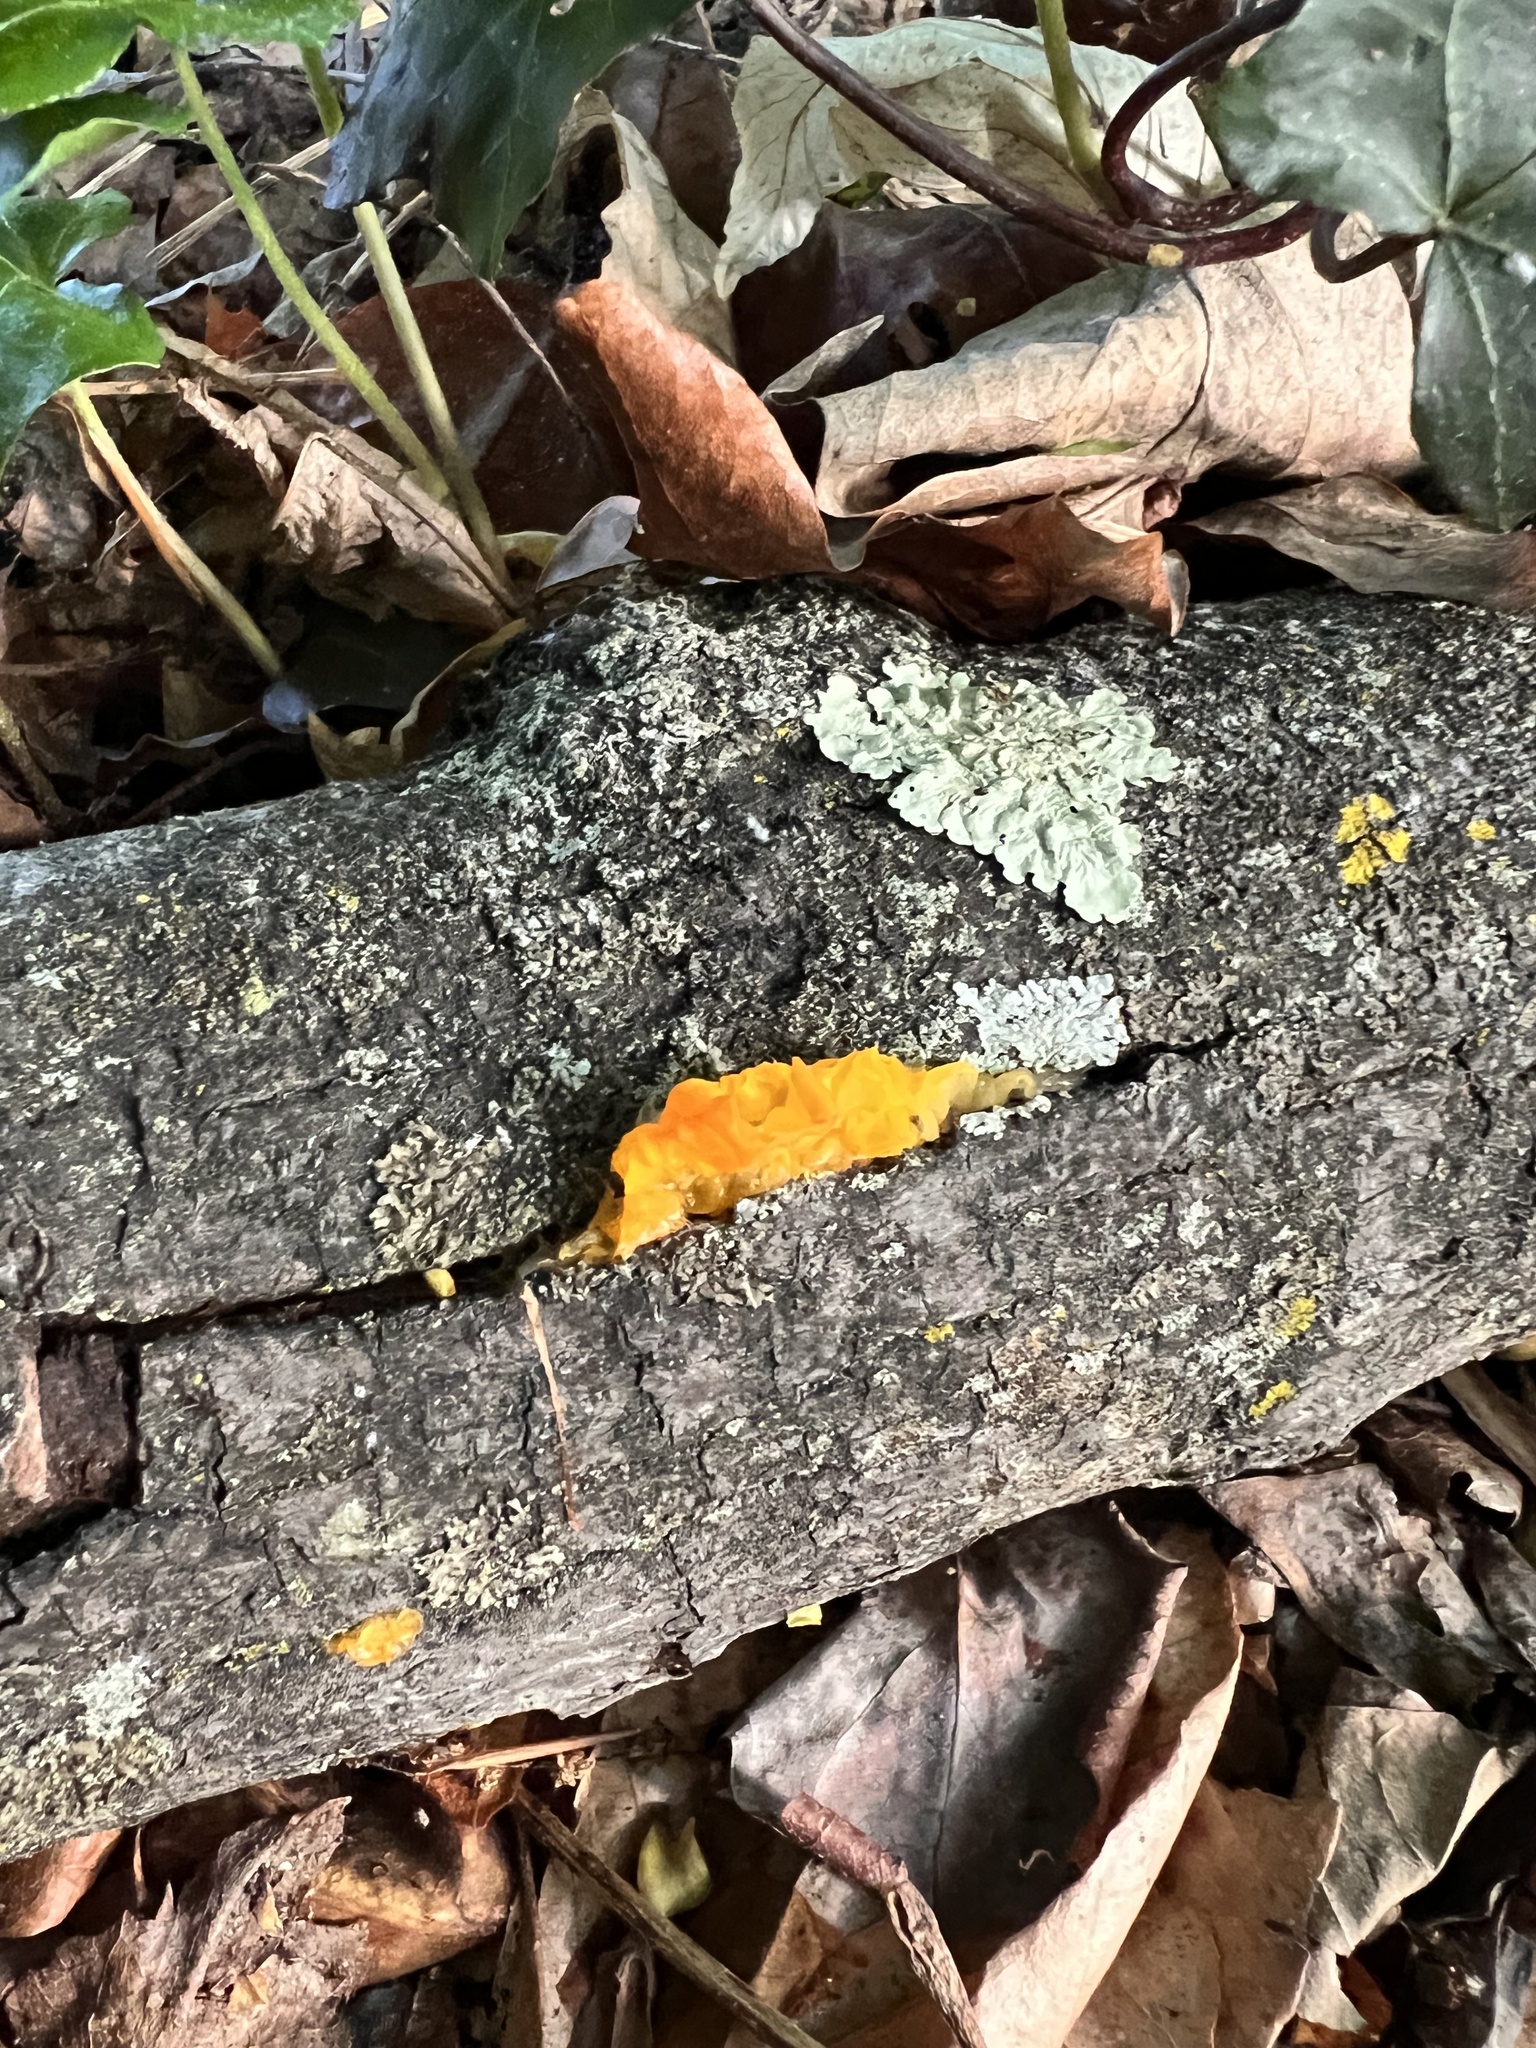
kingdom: Fungi
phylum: Basidiomycota
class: Tremellomycetes
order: Tremellales
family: Tremellaceae
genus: Tremella
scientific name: Tremella mesenterica
